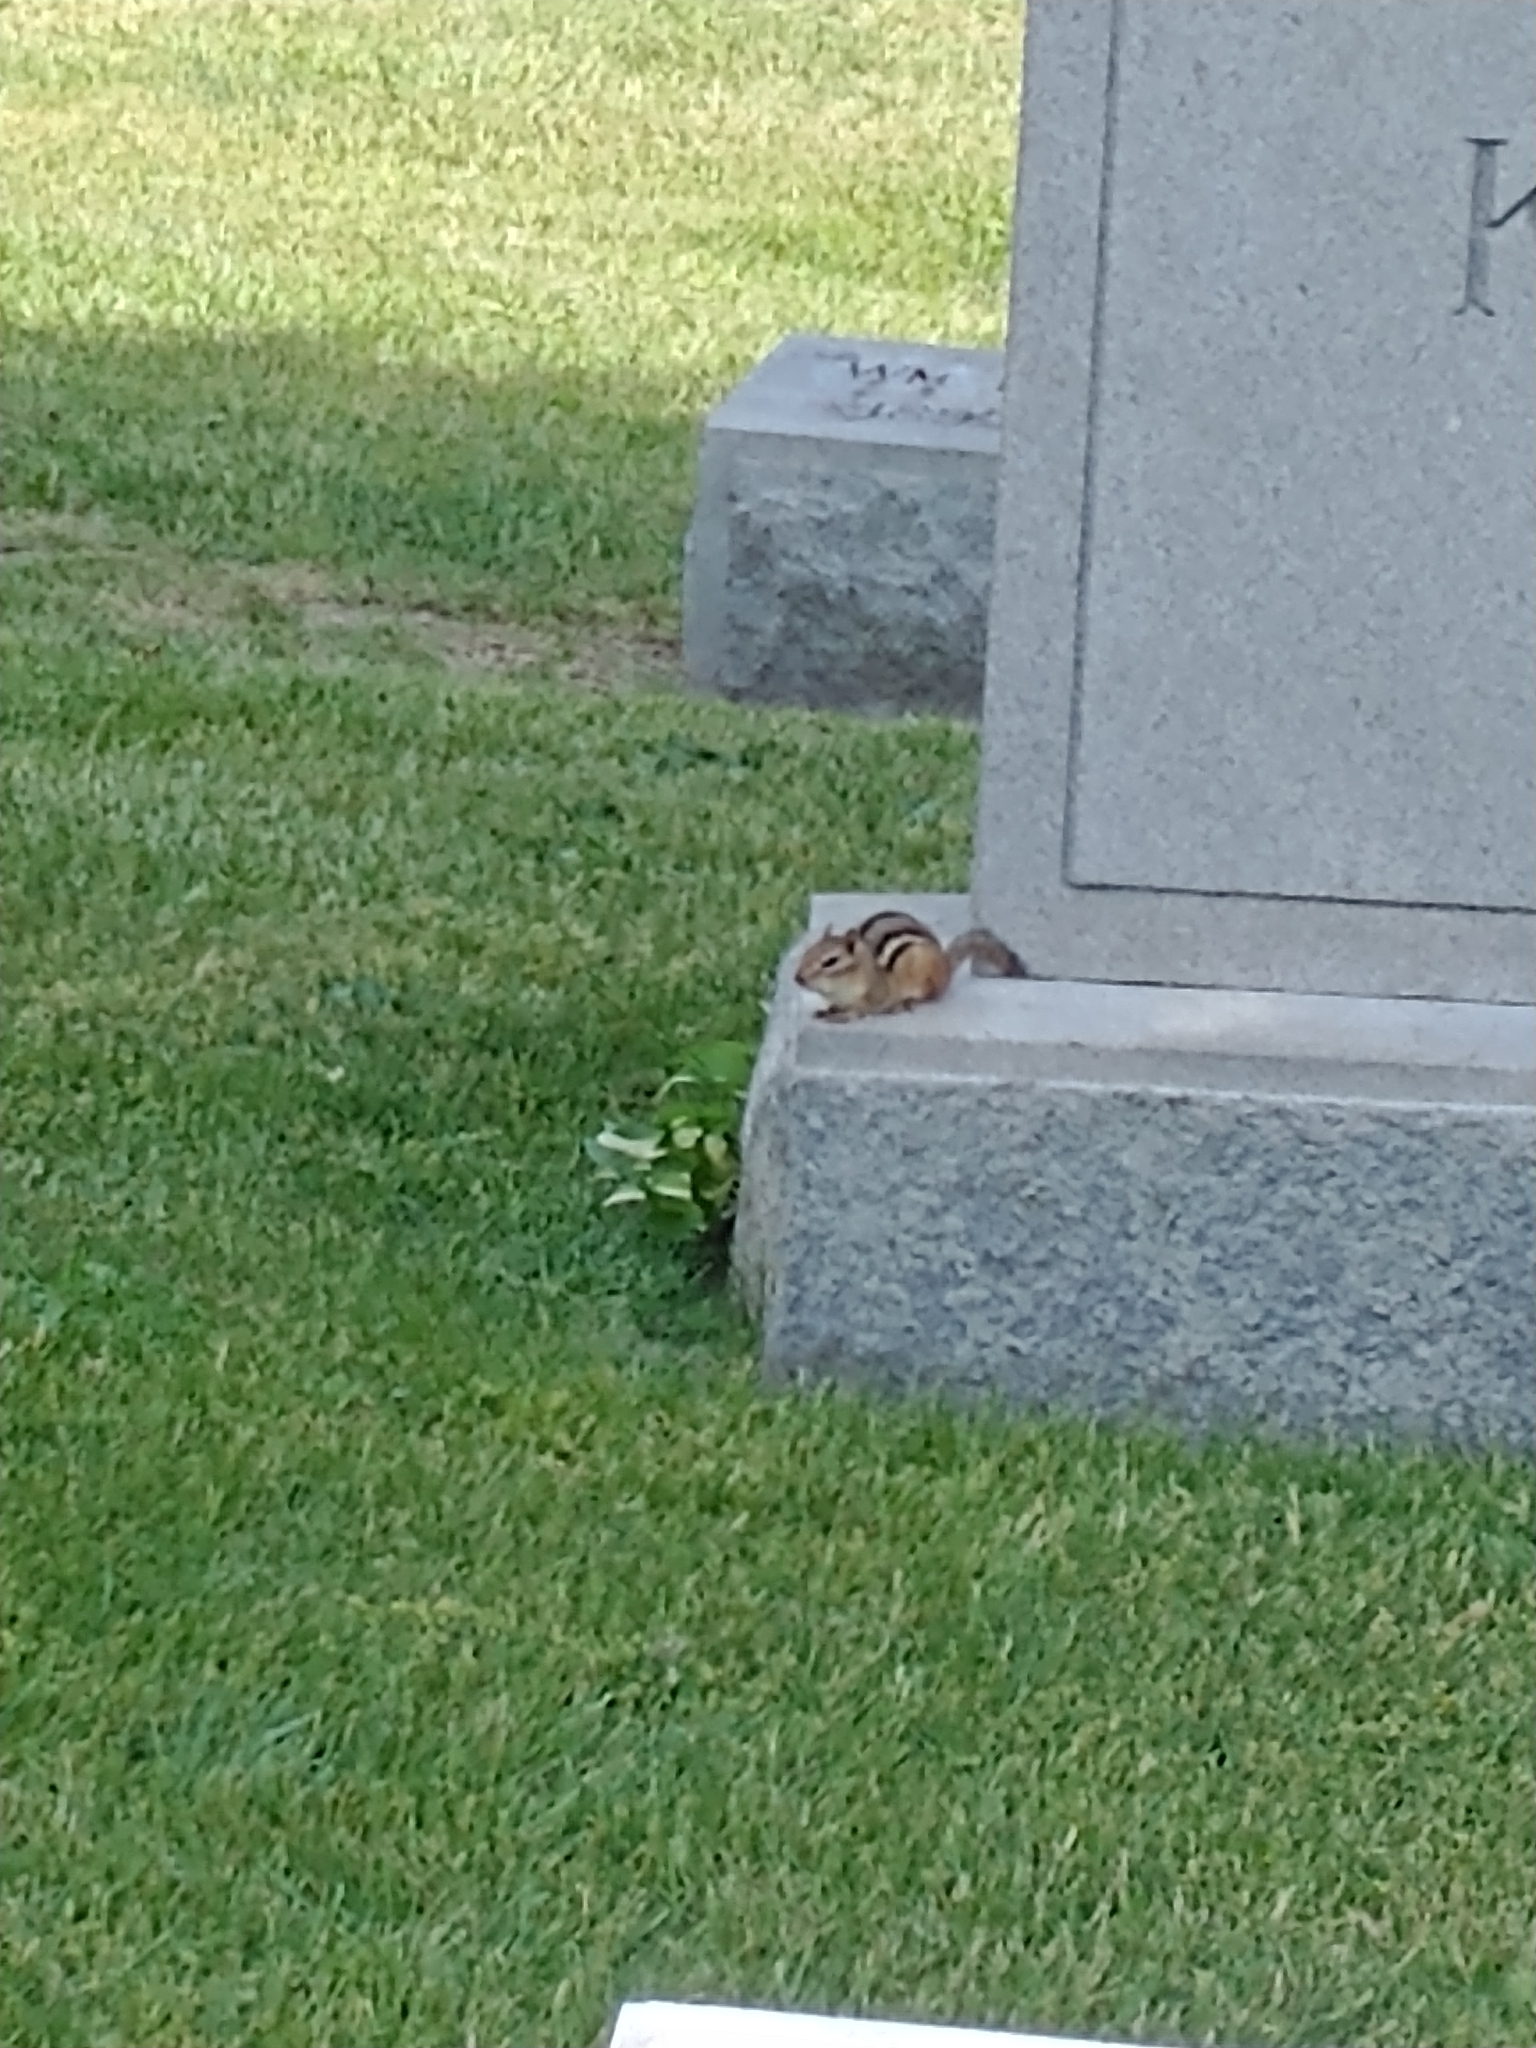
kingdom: Animalia
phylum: Chordata
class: Mammalia
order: Rodentia
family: Sciuridae
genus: Tamias
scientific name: Tamias striatus
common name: Eastern chipmunk
